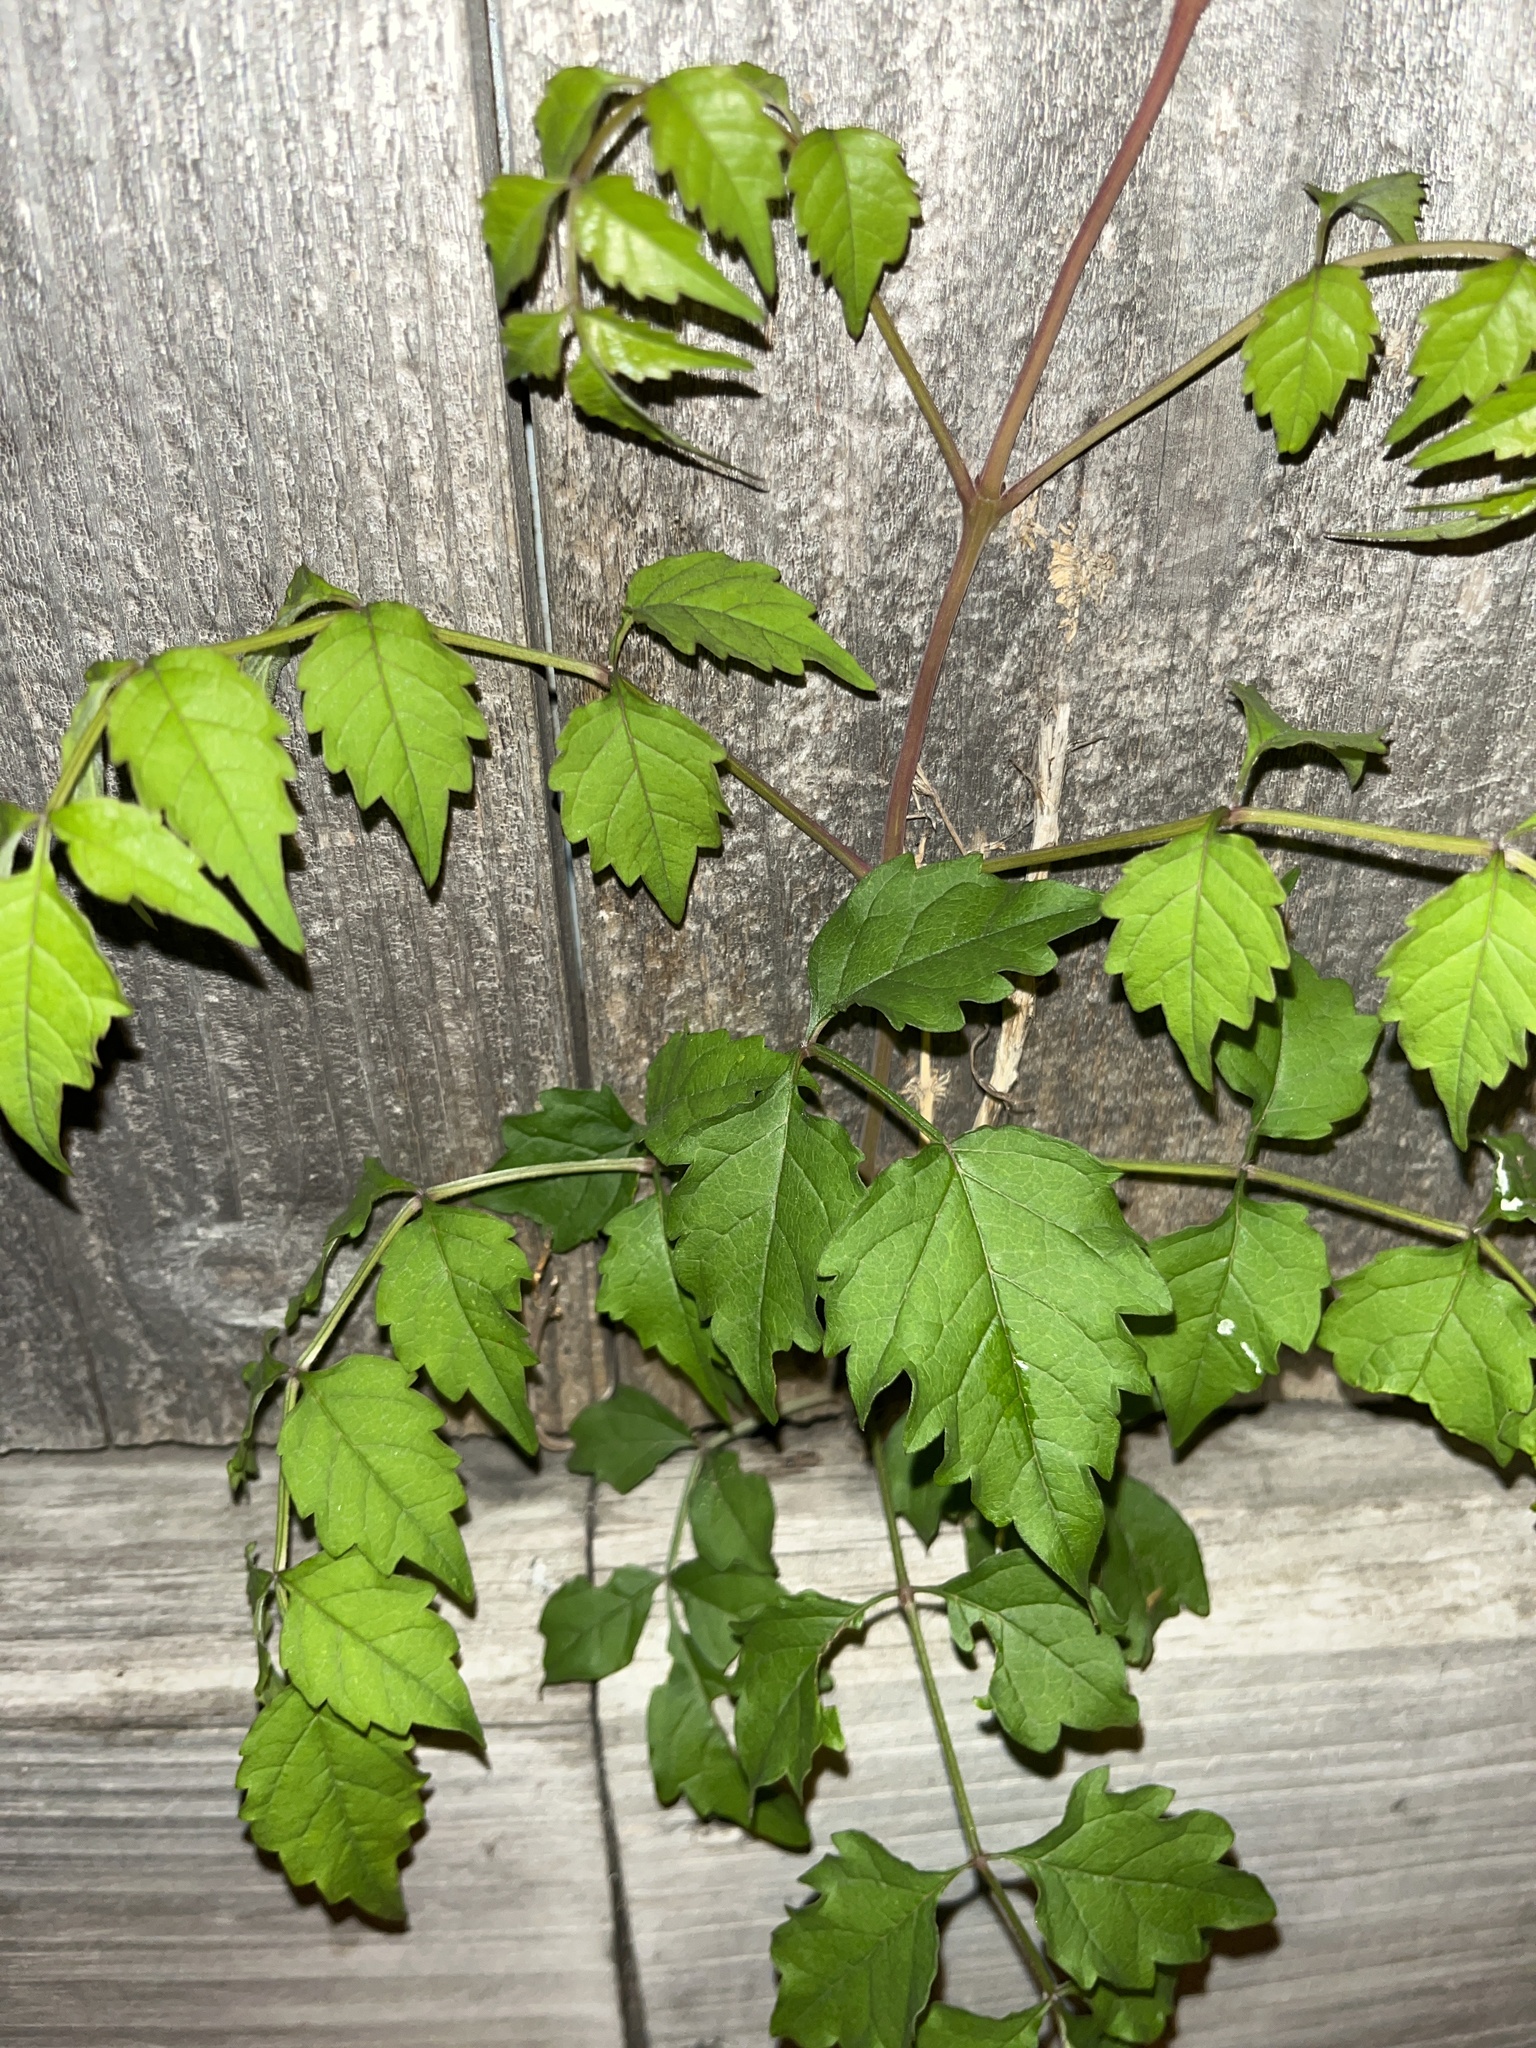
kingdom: Plantae
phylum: Tracheophyta
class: Magnoliopsida
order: Lamiales
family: Bignoniaceae
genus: Campsis
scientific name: Campsis radicans
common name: Trumpet-creeper
